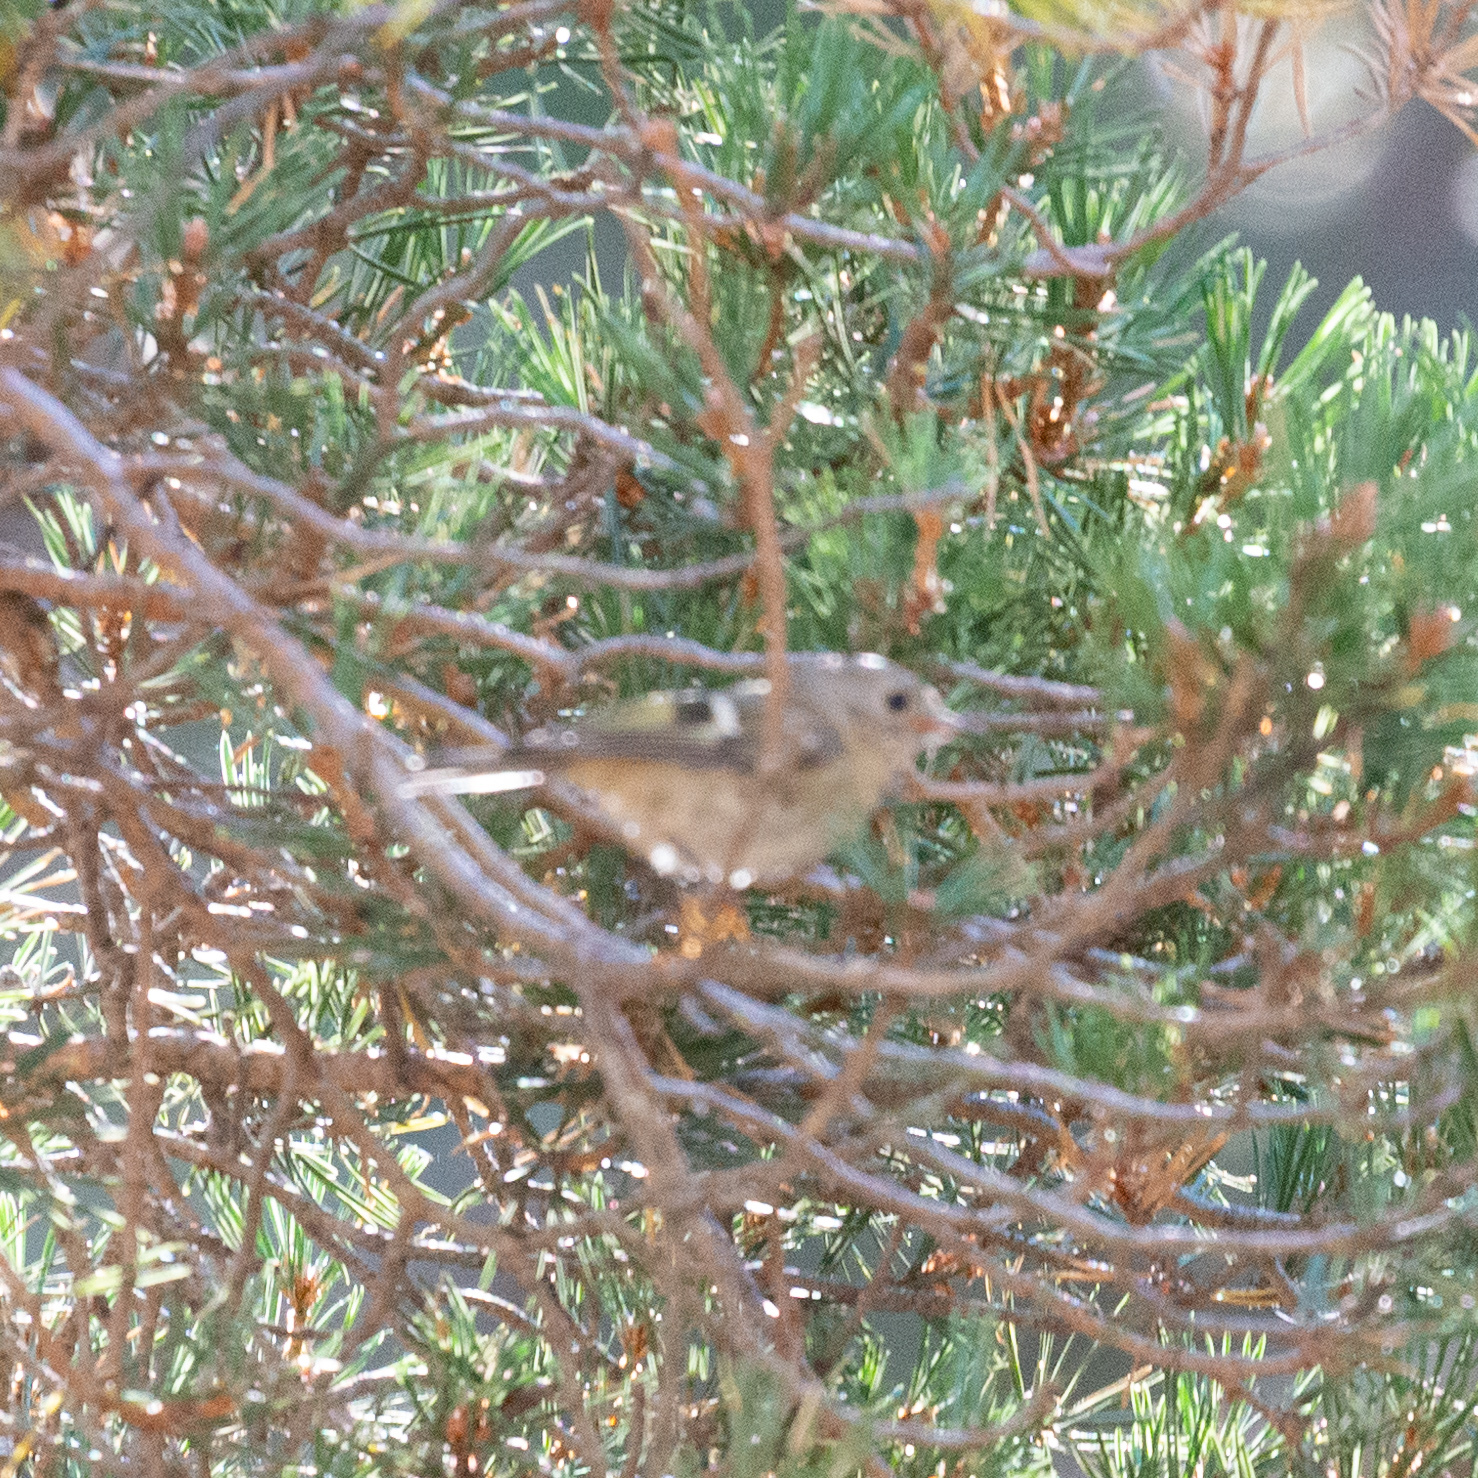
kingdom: Animalia
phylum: Chordata
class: Aves
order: Passeriformes
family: Regulidae
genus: Regulus
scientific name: Regulus regulus
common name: Goldcrest
